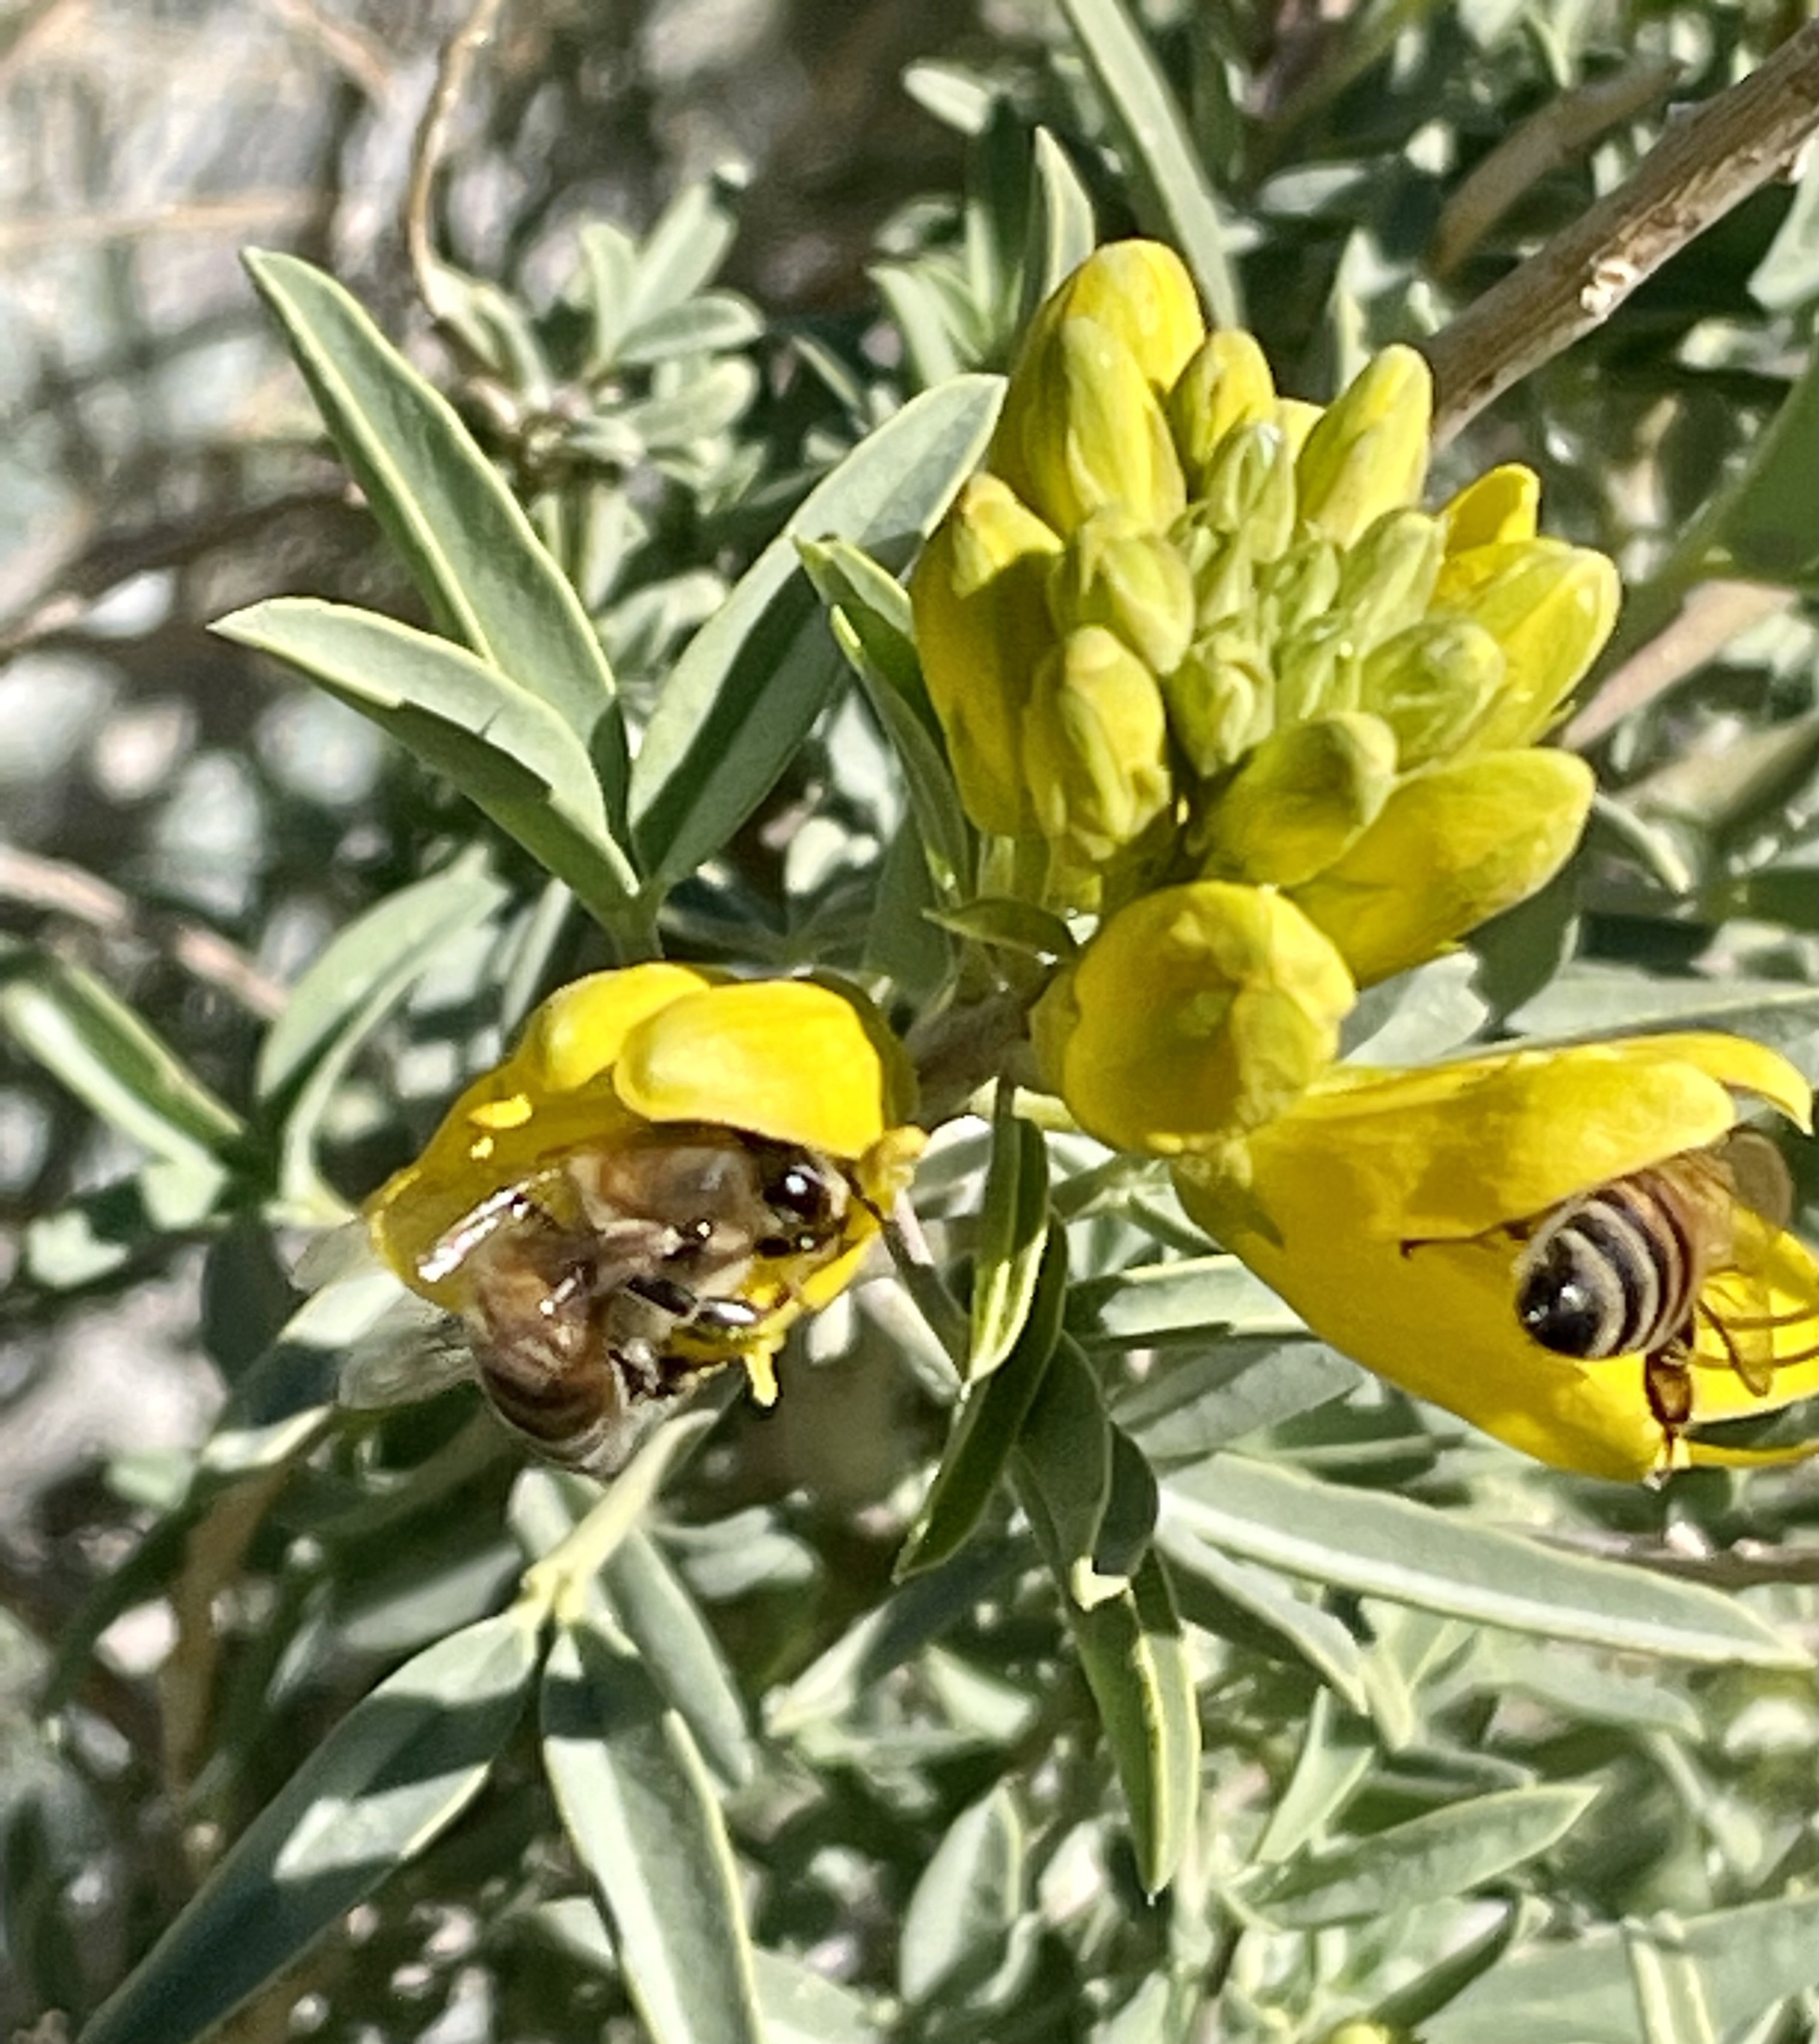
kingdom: Plantae
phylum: Tracheophyta
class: Magnoliopsida
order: Brassicales
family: Cleomaceae
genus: Cleomella
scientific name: Cleomella arborea
